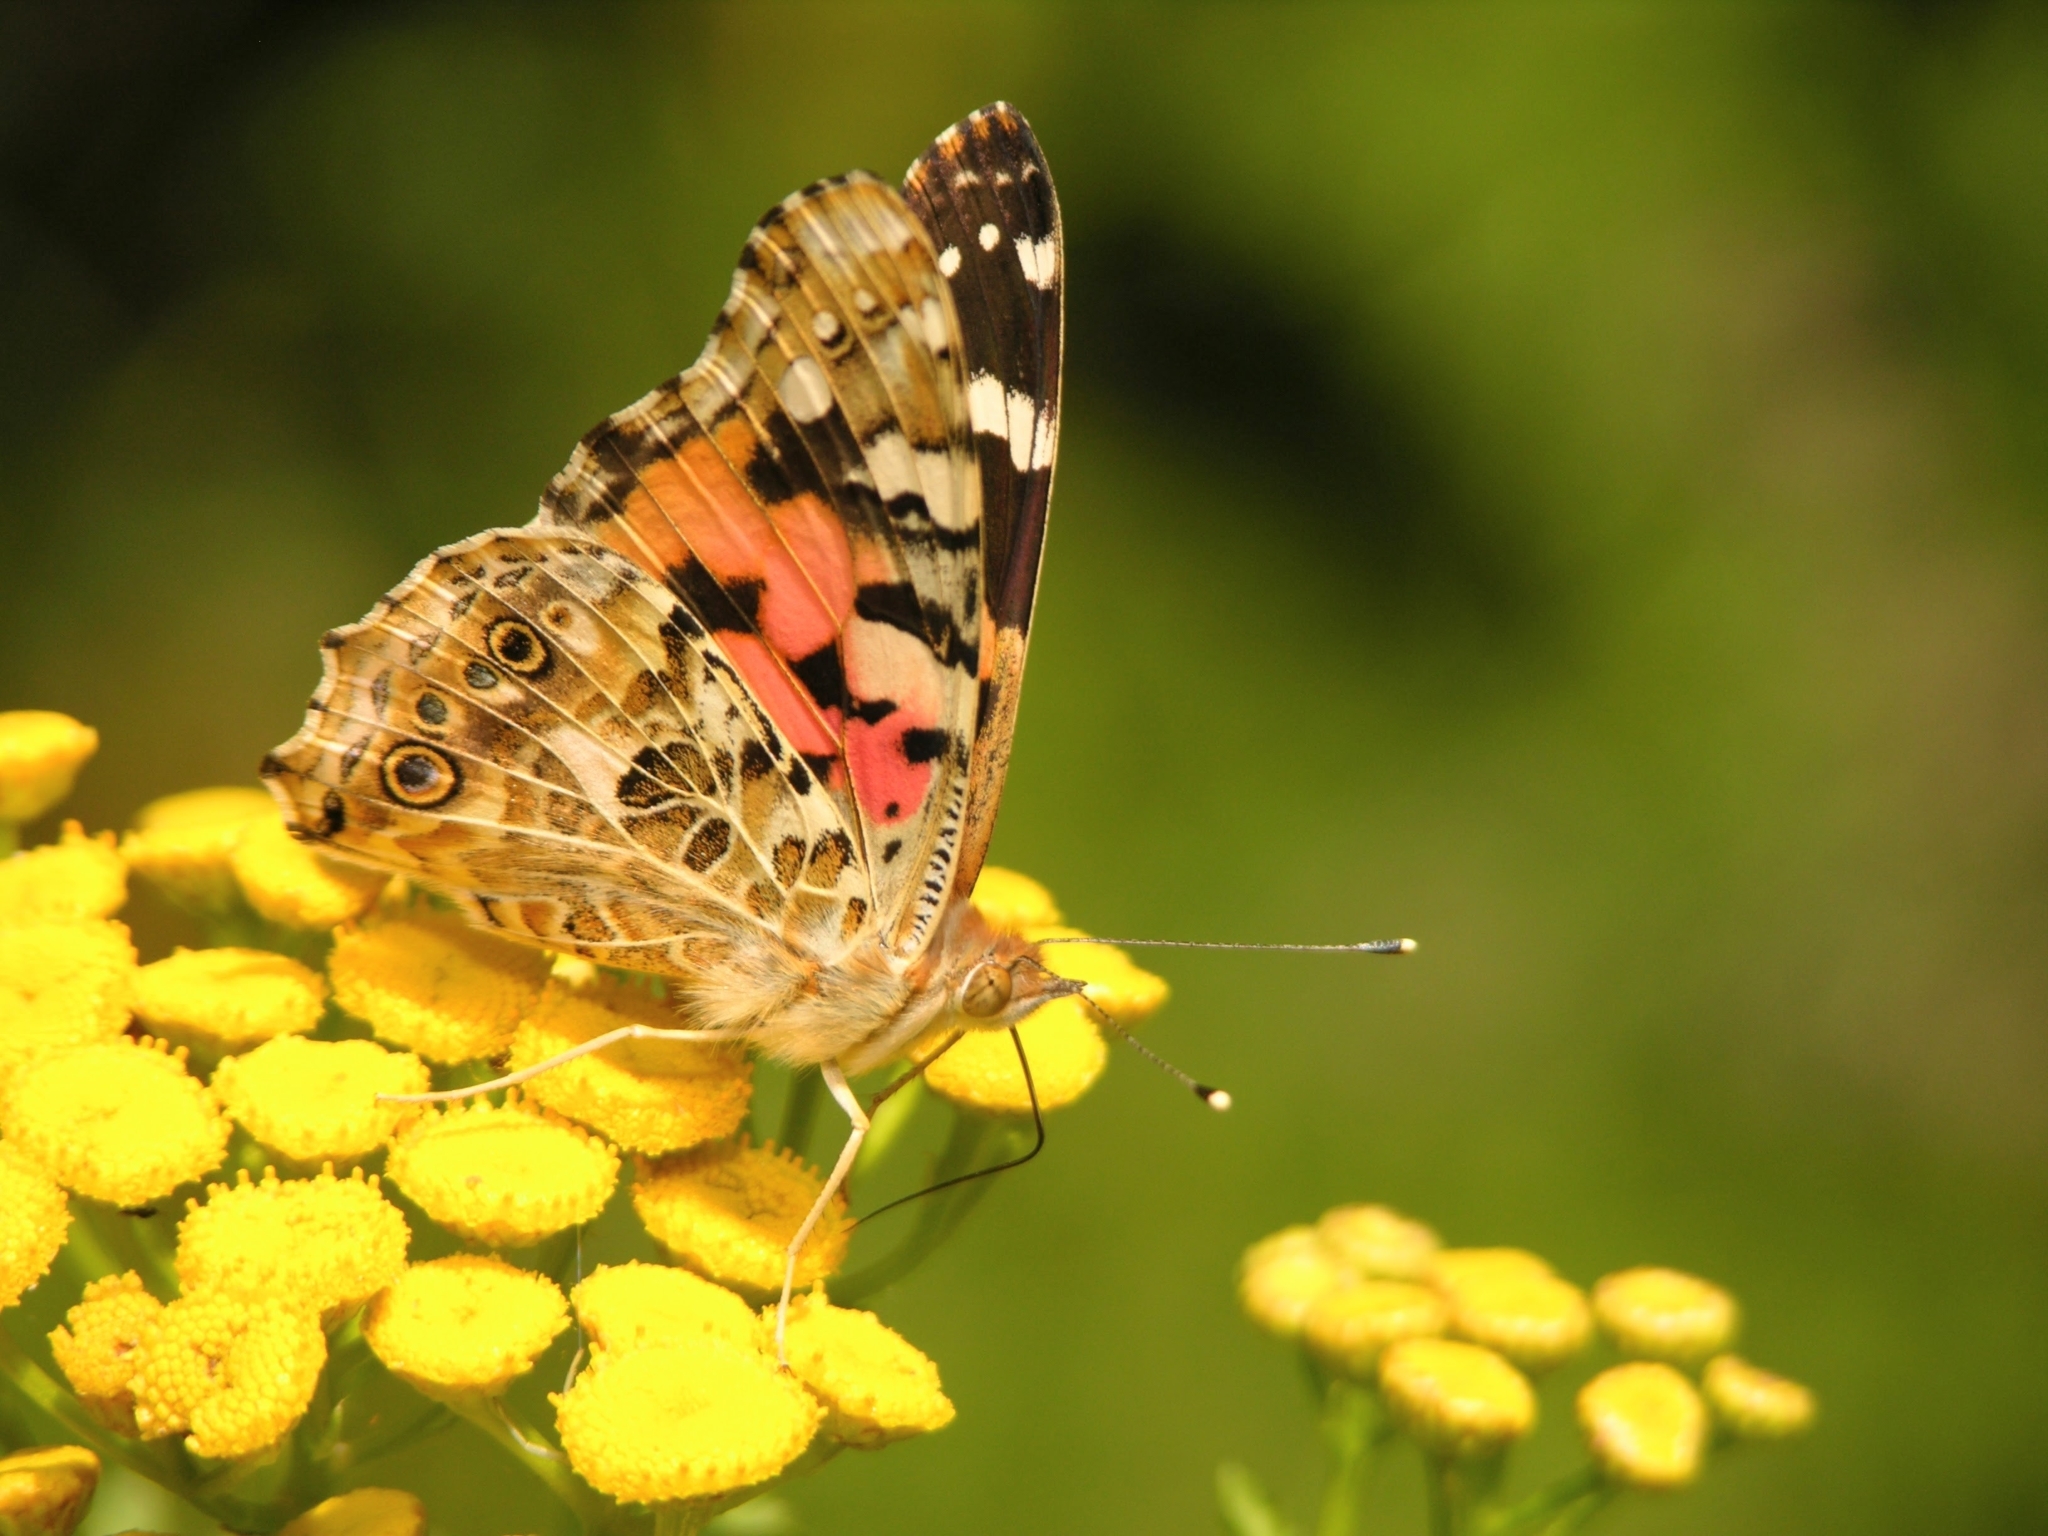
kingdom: Animalia
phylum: Arthropoda
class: Insecta
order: Lepidoptera
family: Nymphalidae
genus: Vanessa
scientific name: Vanessa cardui
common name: Painted lady
